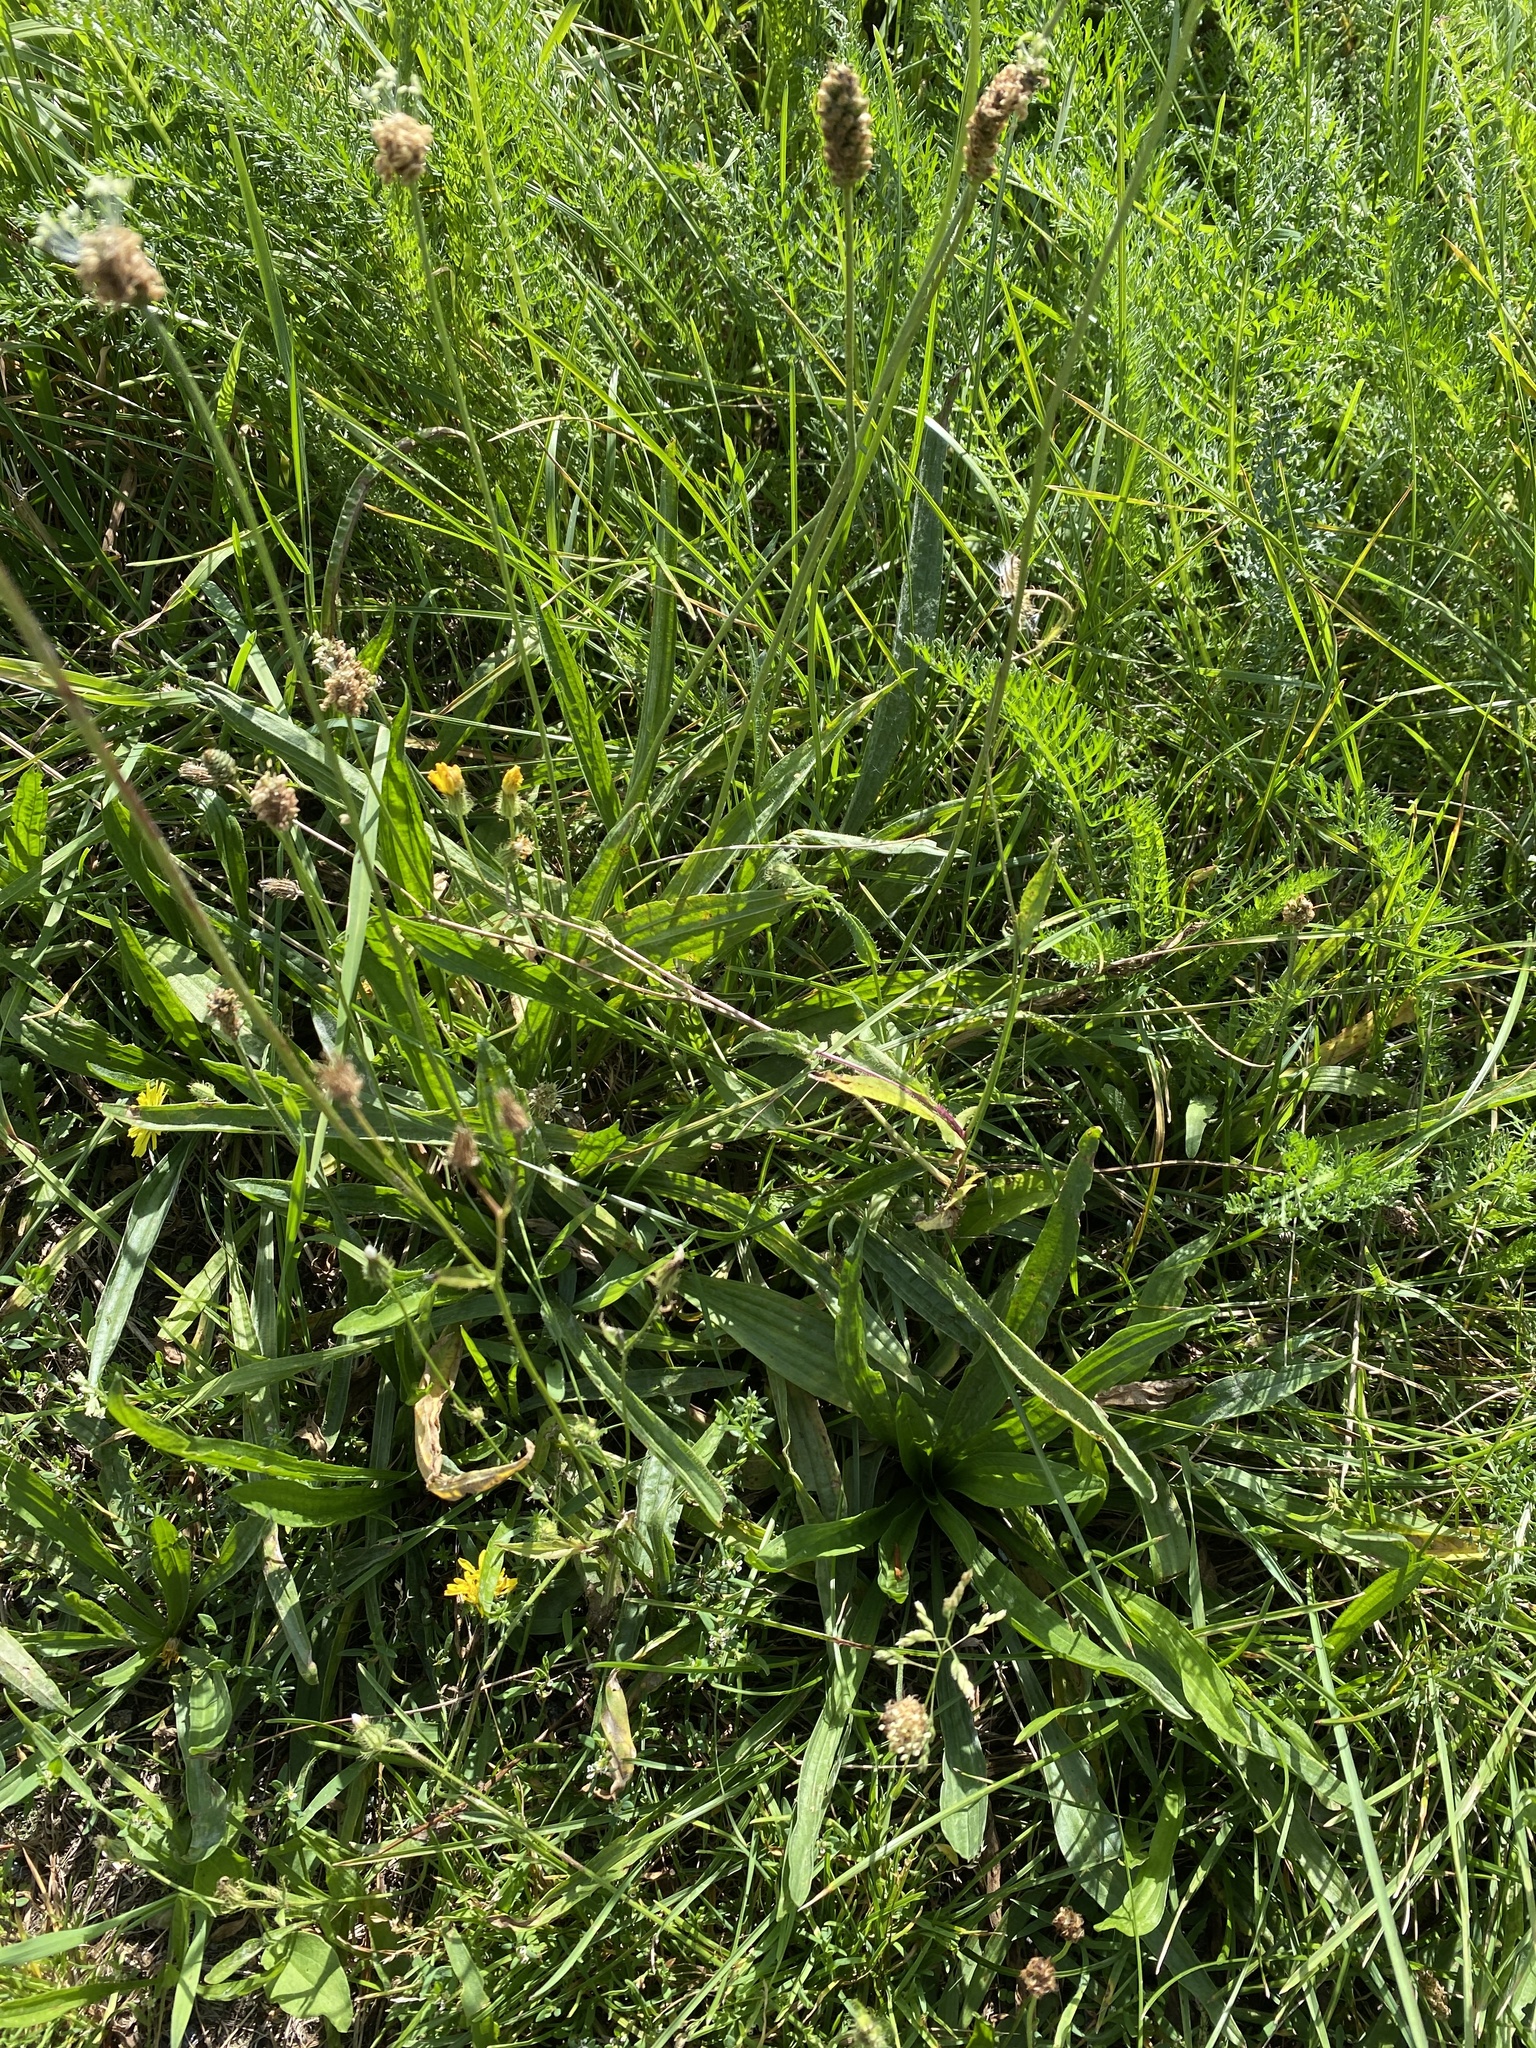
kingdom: Plantae
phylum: Tracheophyta
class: Magnoliopsida
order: Lamiales
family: Plantaginaceae
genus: Plantago
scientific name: Plantago lanceolata
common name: Ribwort plantain
